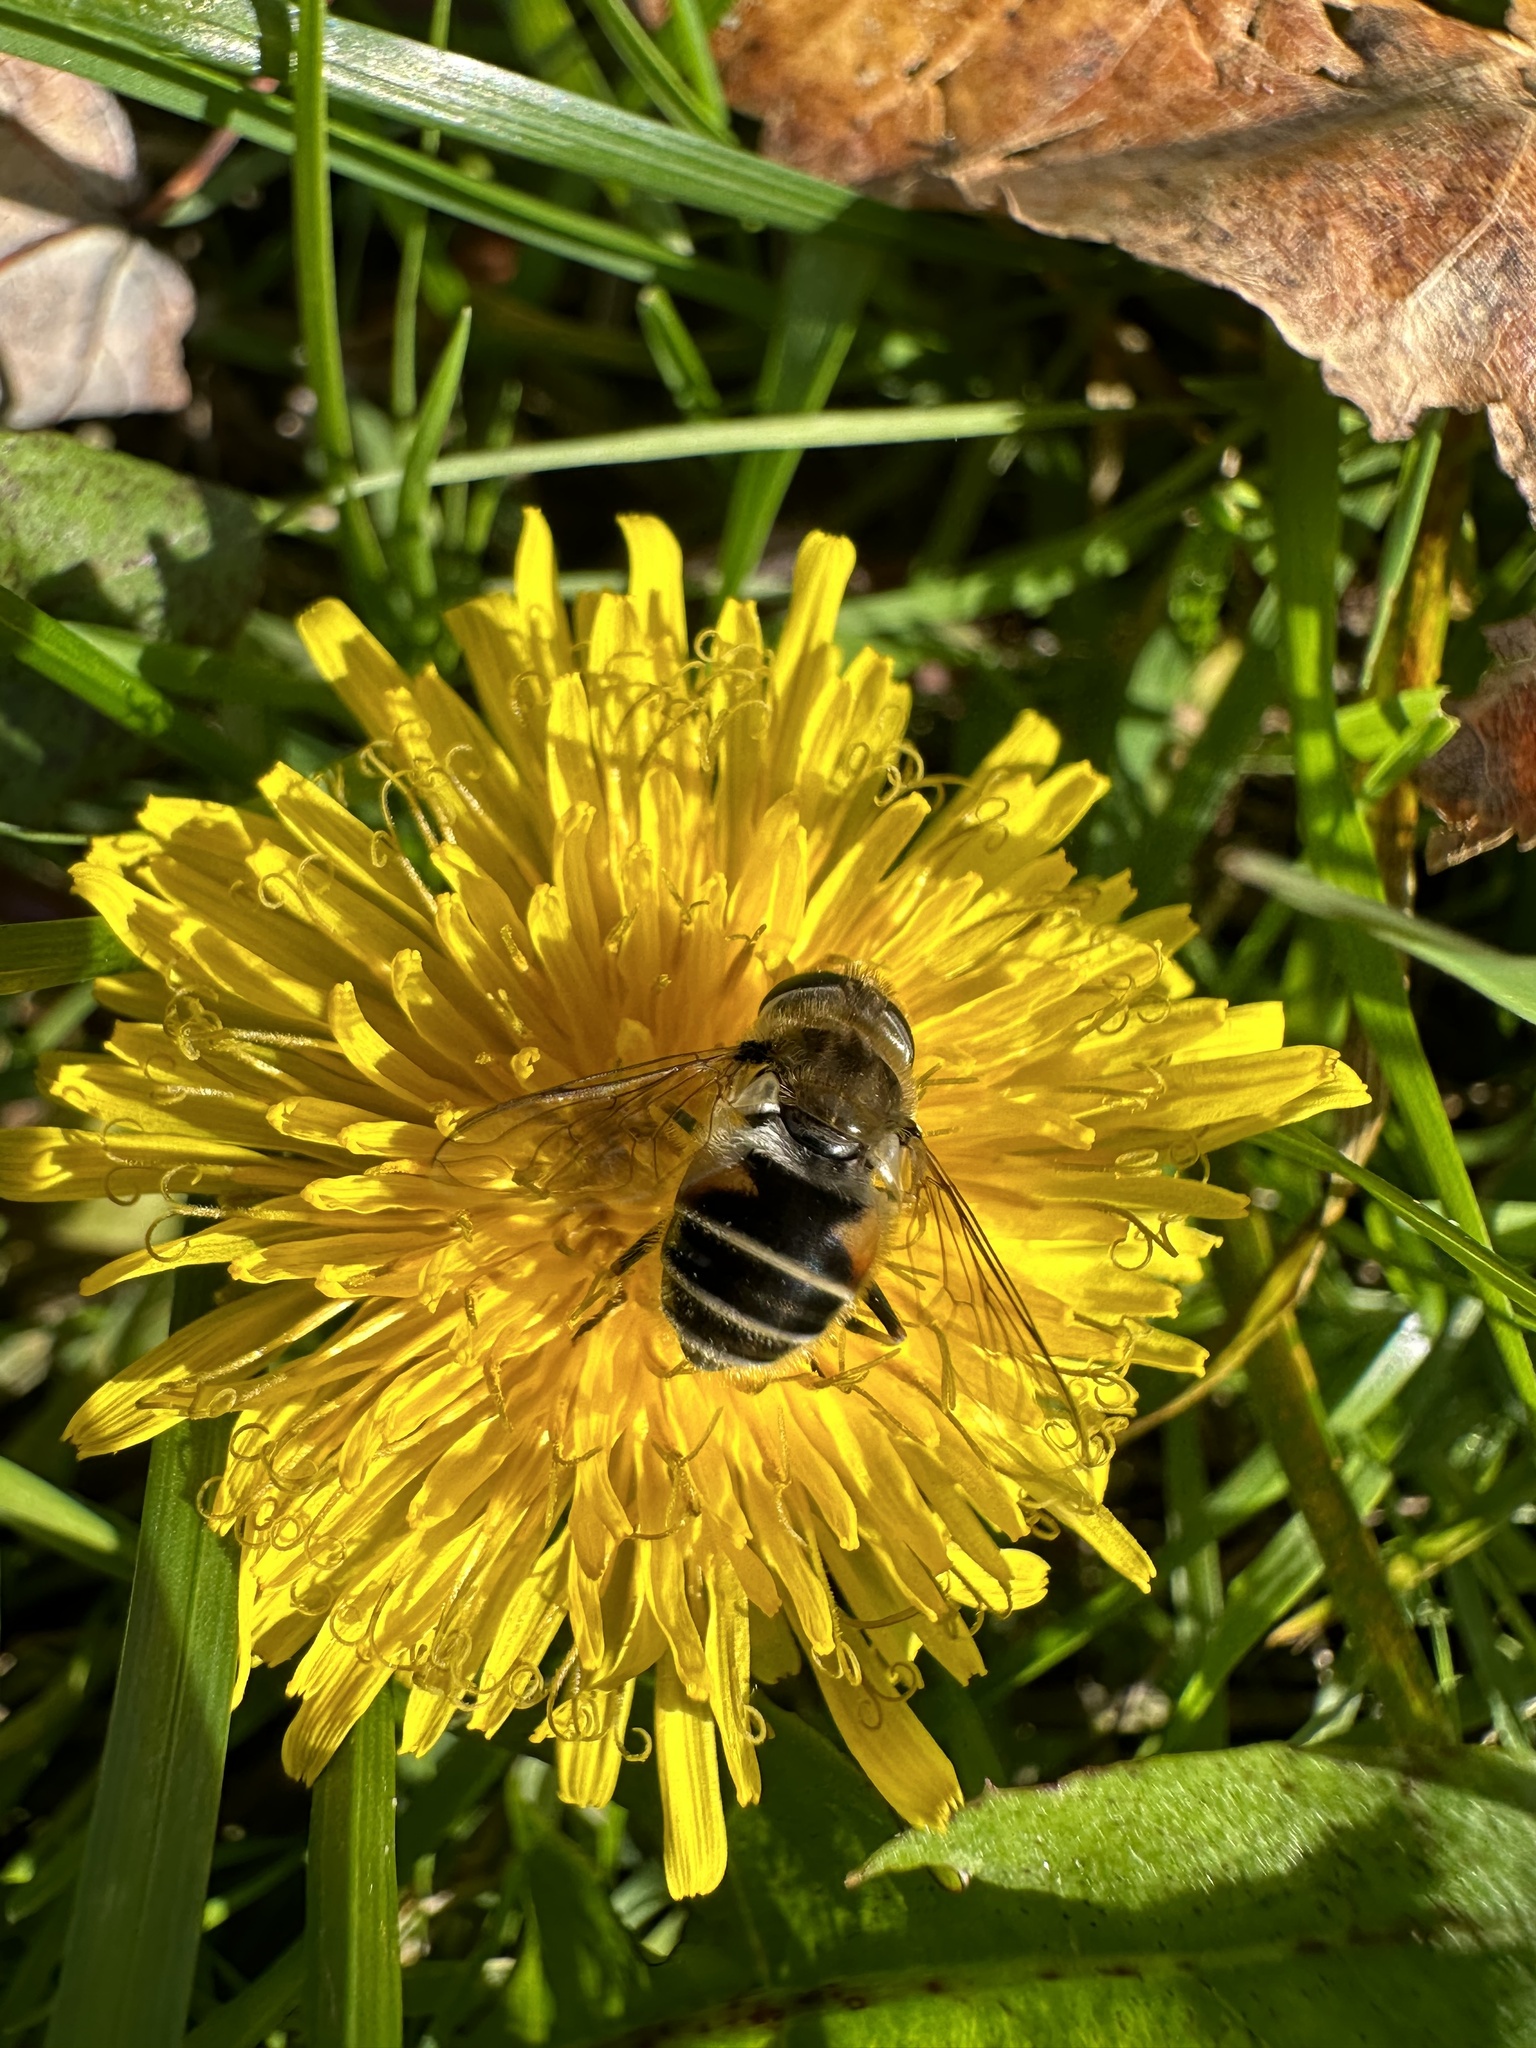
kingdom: Animalia
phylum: Arthropoda
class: Insecta
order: Diptera
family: Syrphidae
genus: Eristalis
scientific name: Eristalis arbustorum
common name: Hover fly
